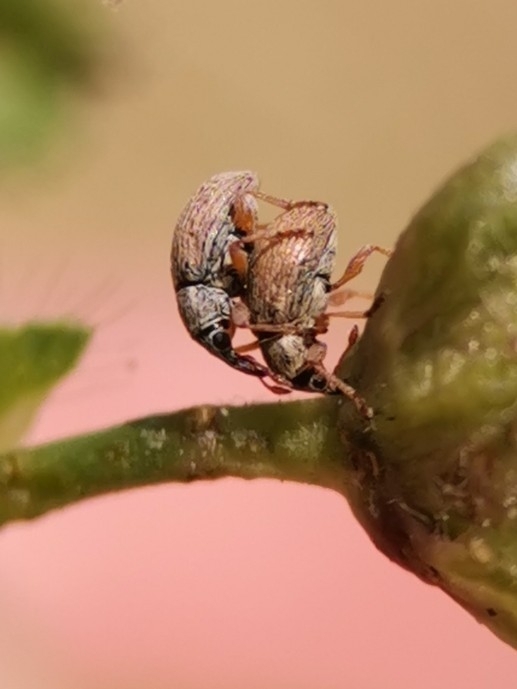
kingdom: Animalia
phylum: Arthropoda
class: Insecta
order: Coleoptera
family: Apionidae
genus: Malvapion
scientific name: Malvapion malvae
